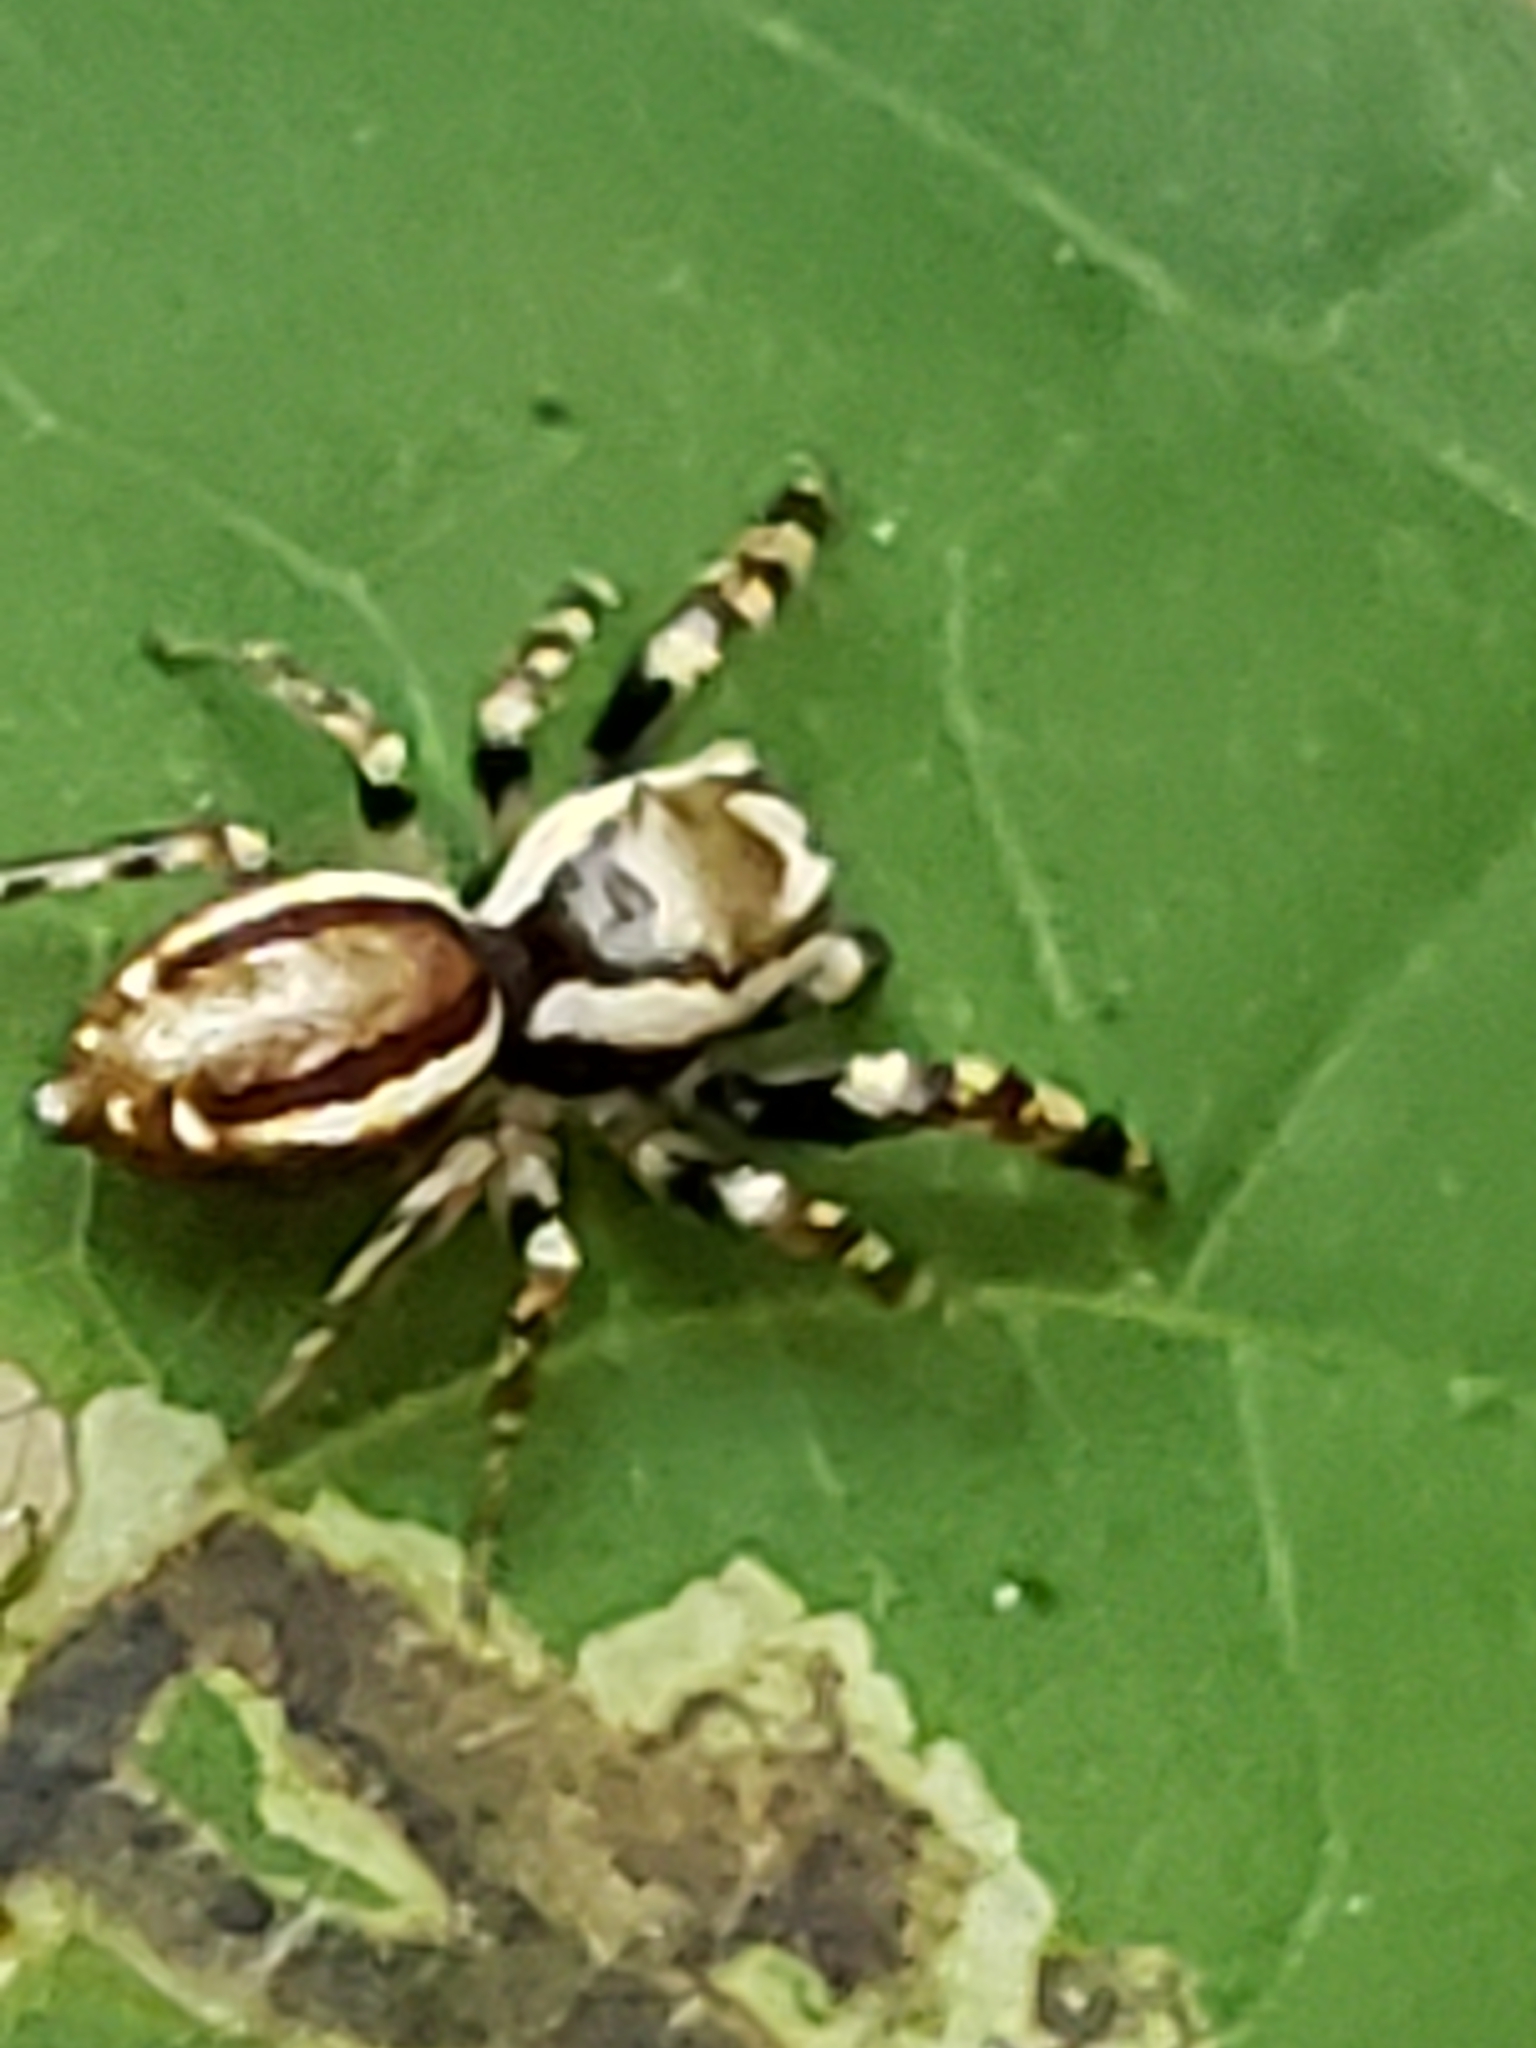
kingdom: Animalia
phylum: Arthropoda
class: Arachnida
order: Araneae
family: Salticidae
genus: Pelegrina
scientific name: Pelegrina proterva
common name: Common white-cheeked jumping spider
